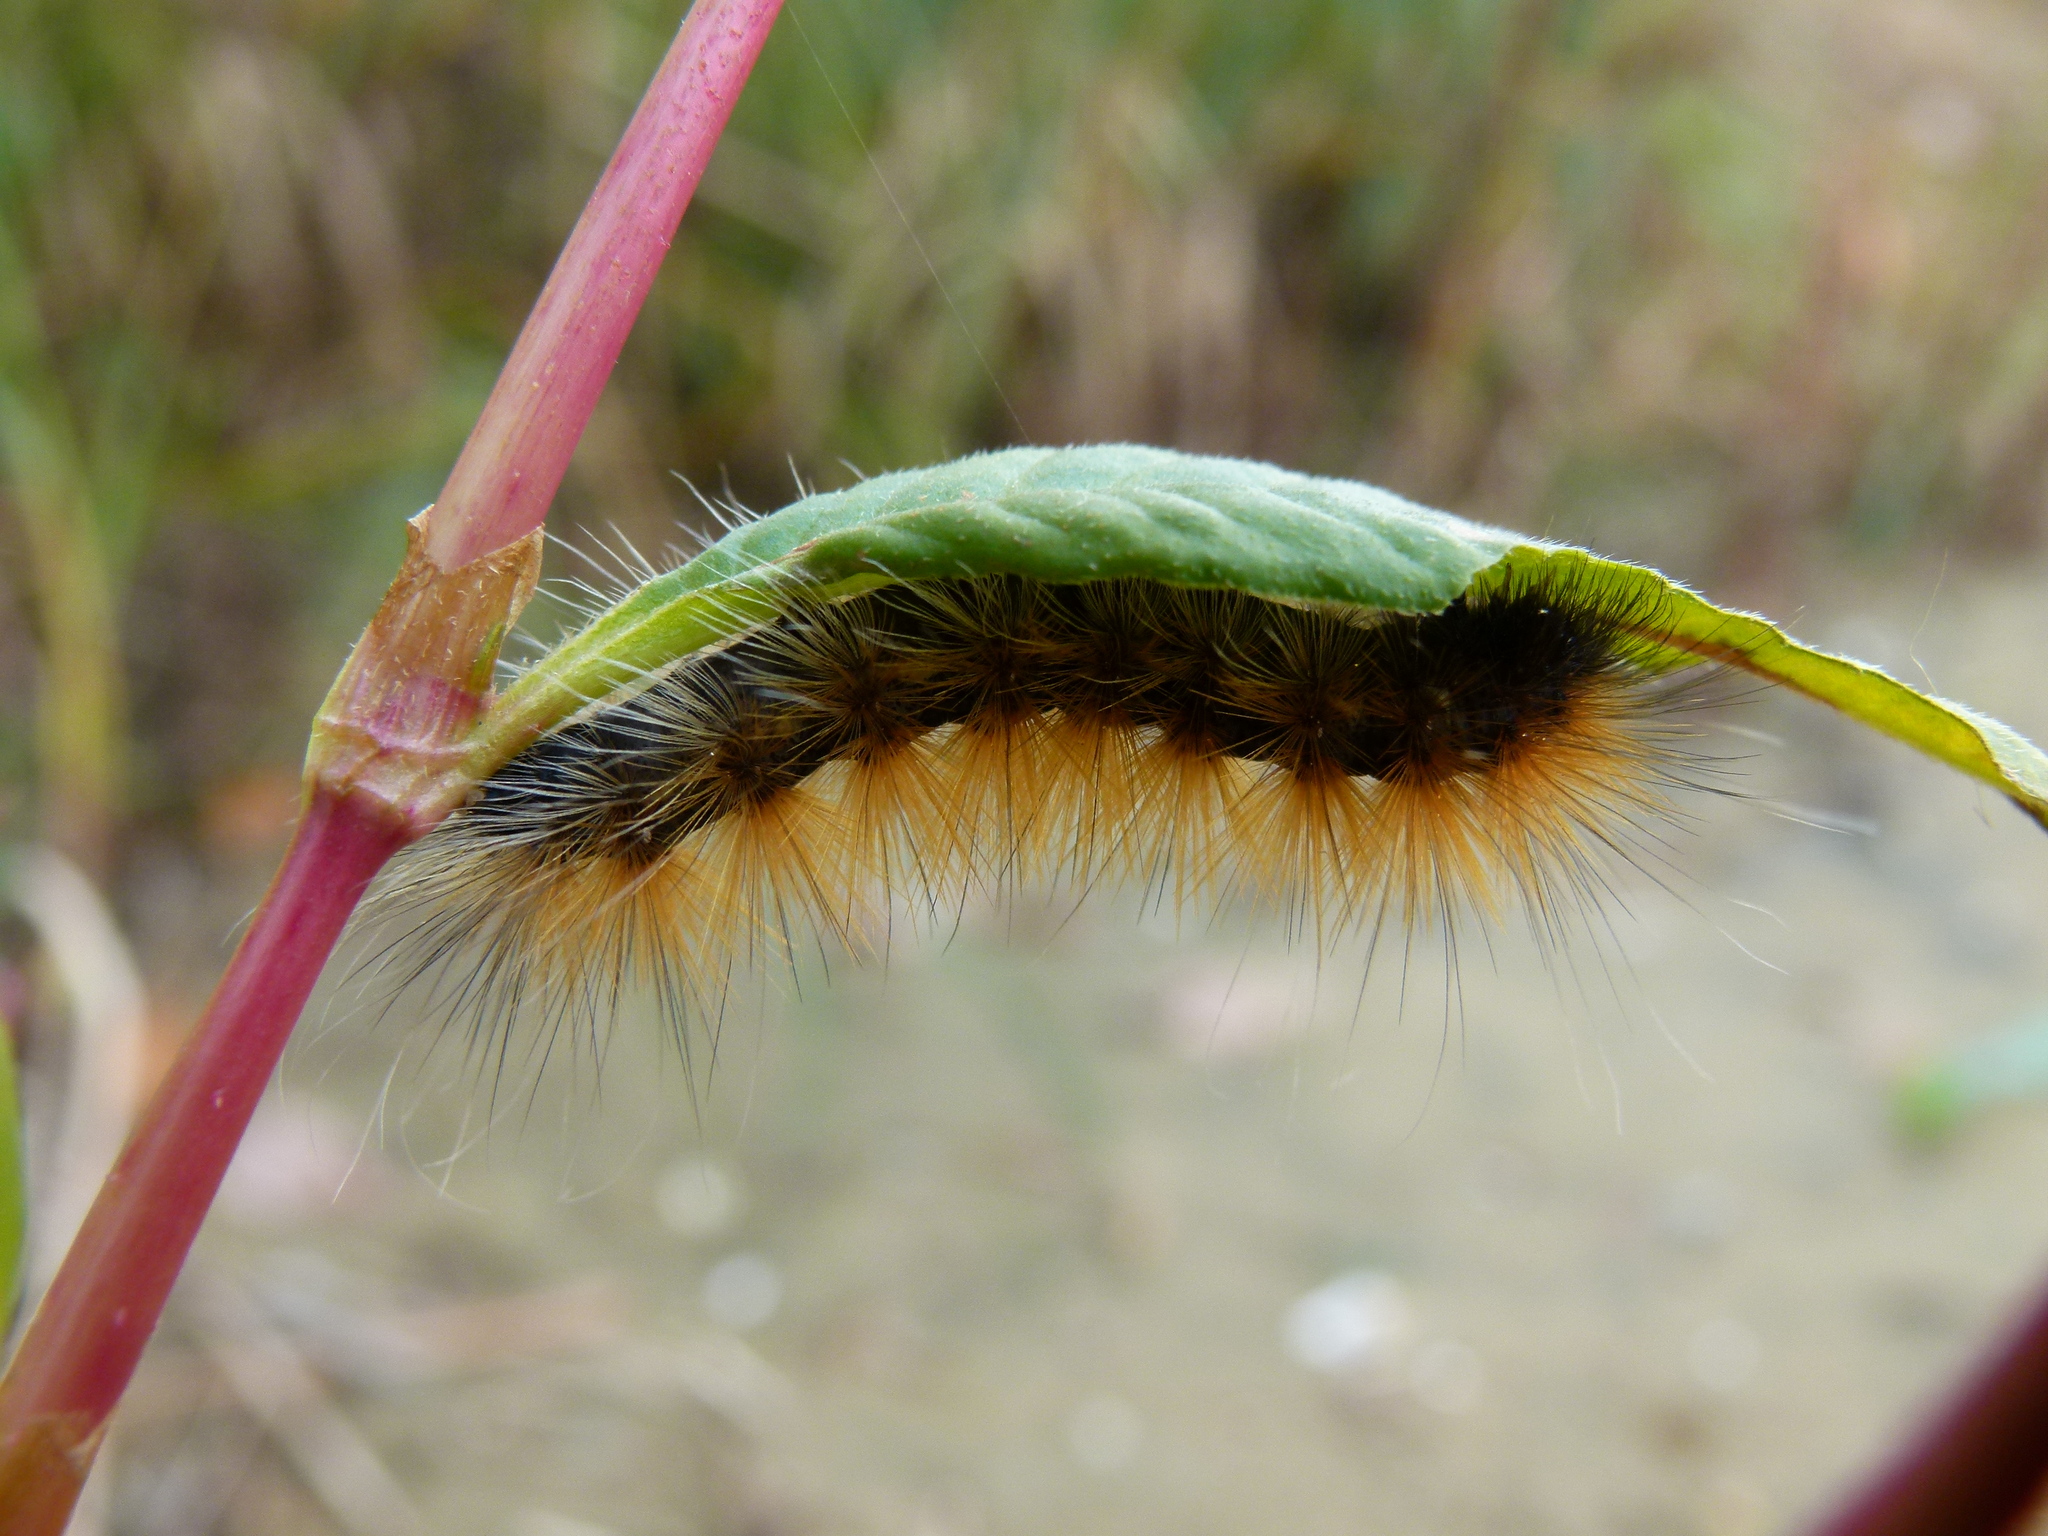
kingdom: Animalia
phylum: Arthropoda
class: Insecta
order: Lepidoptera
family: Erebidae
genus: Spilosoma
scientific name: Spilosoma virginica
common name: Virginia tiger moth
